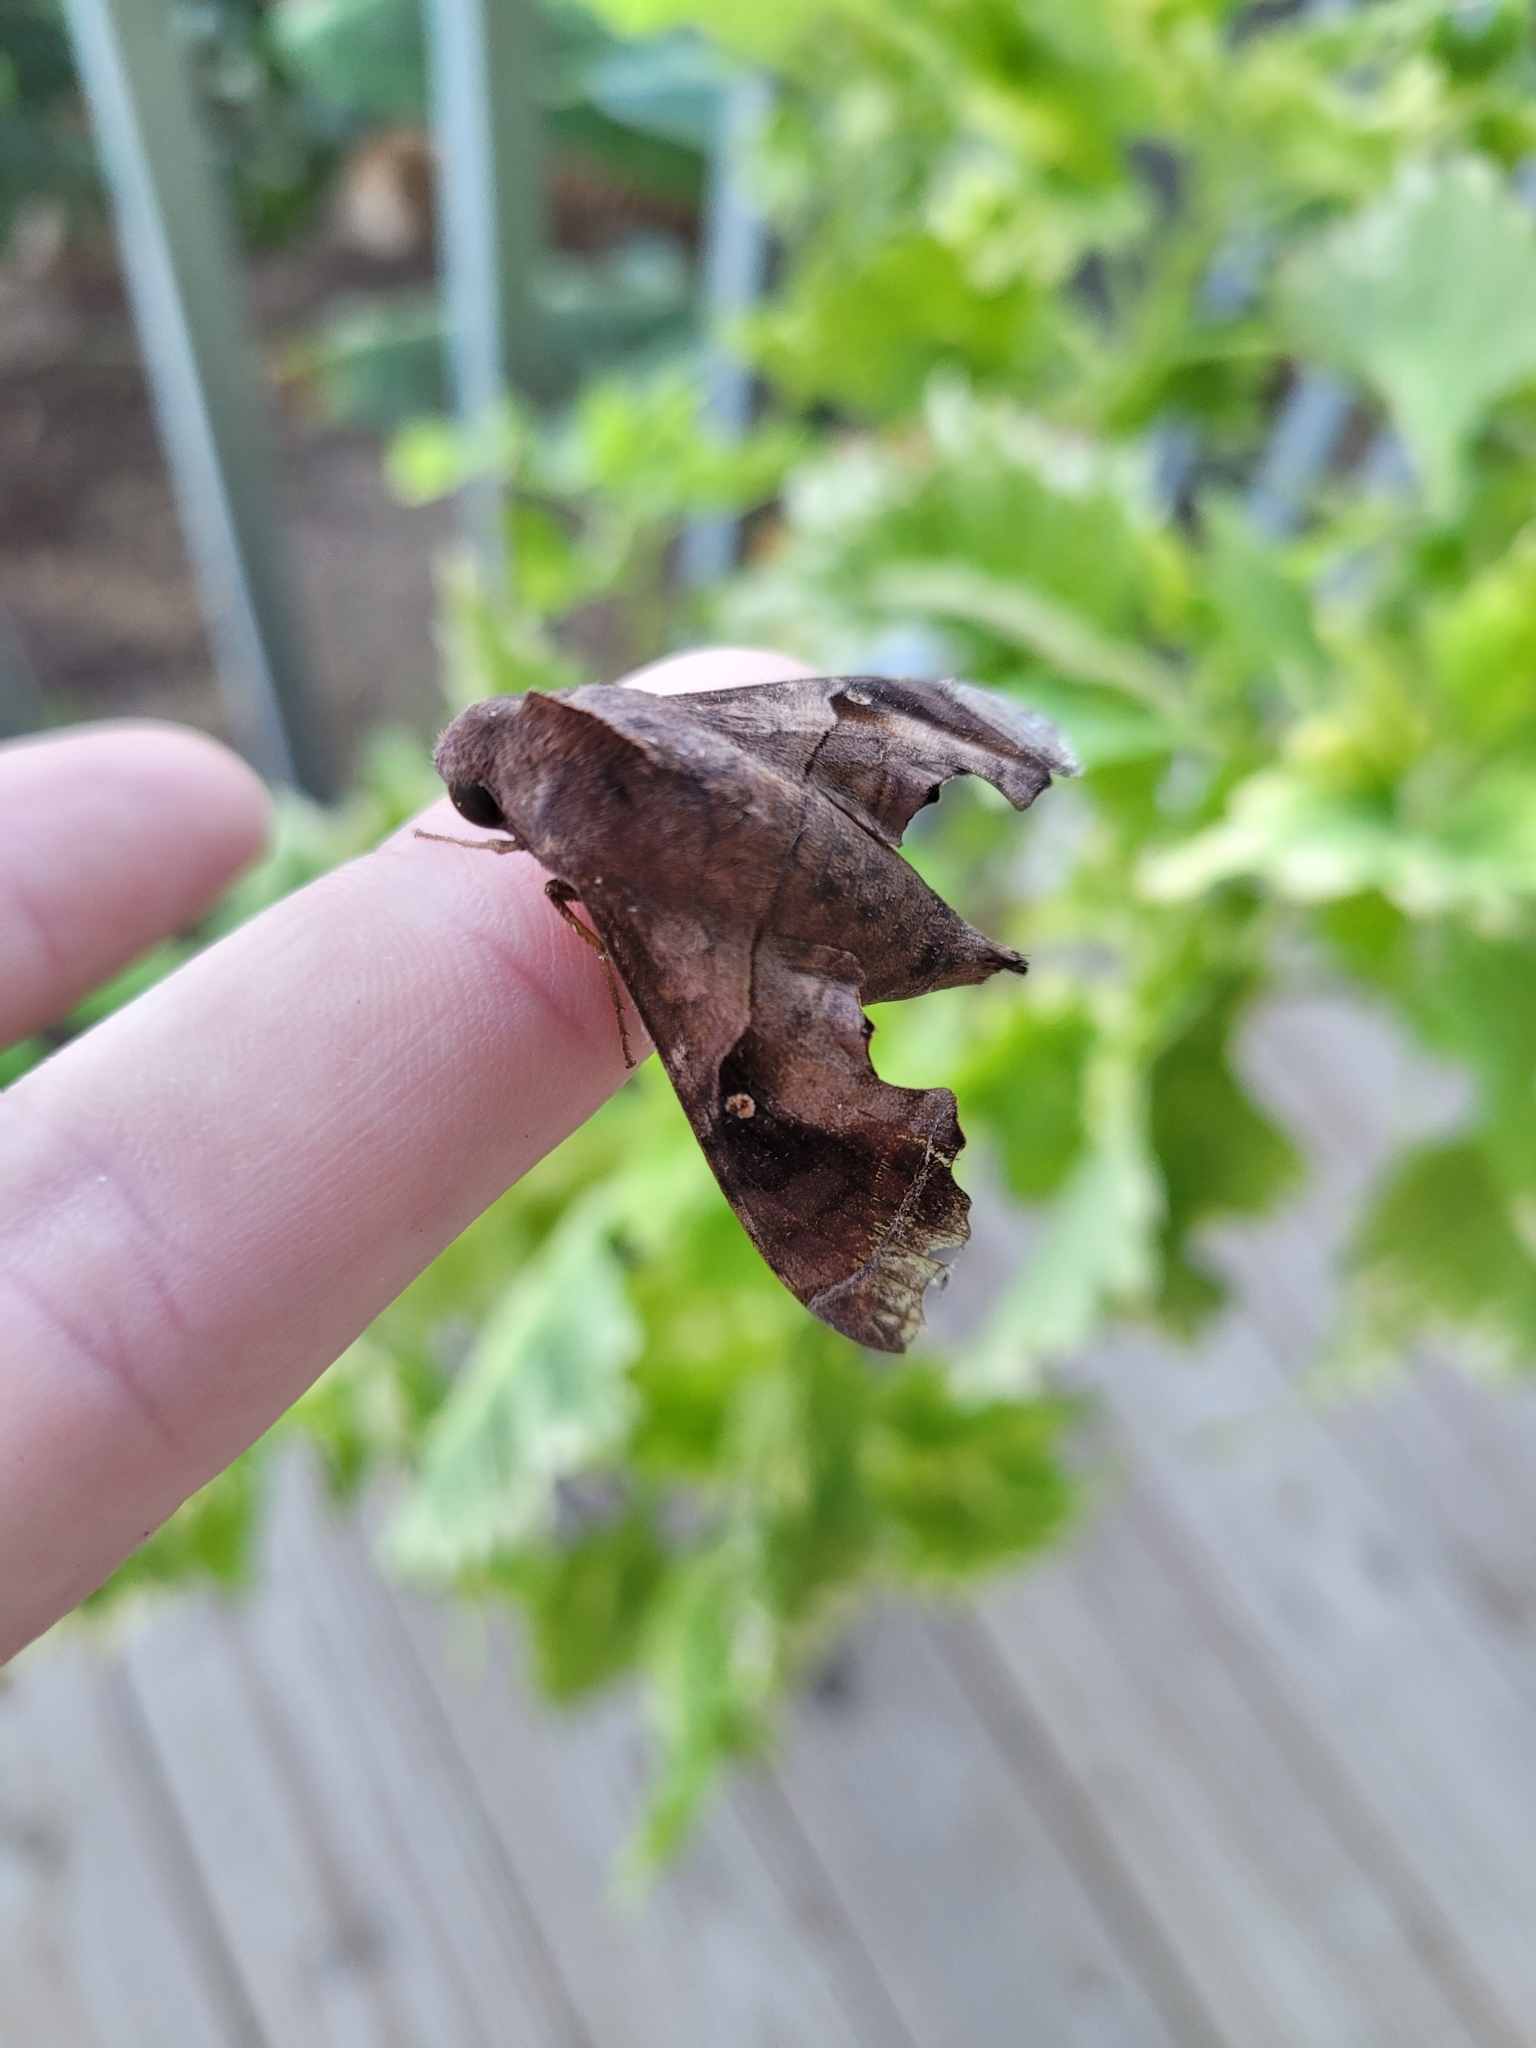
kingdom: Animalia
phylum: Arthropoda
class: Insecta
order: Lepidoptera
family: Sphingidae
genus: Enyo
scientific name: Enyo lugubris
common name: Mournful sphinx
